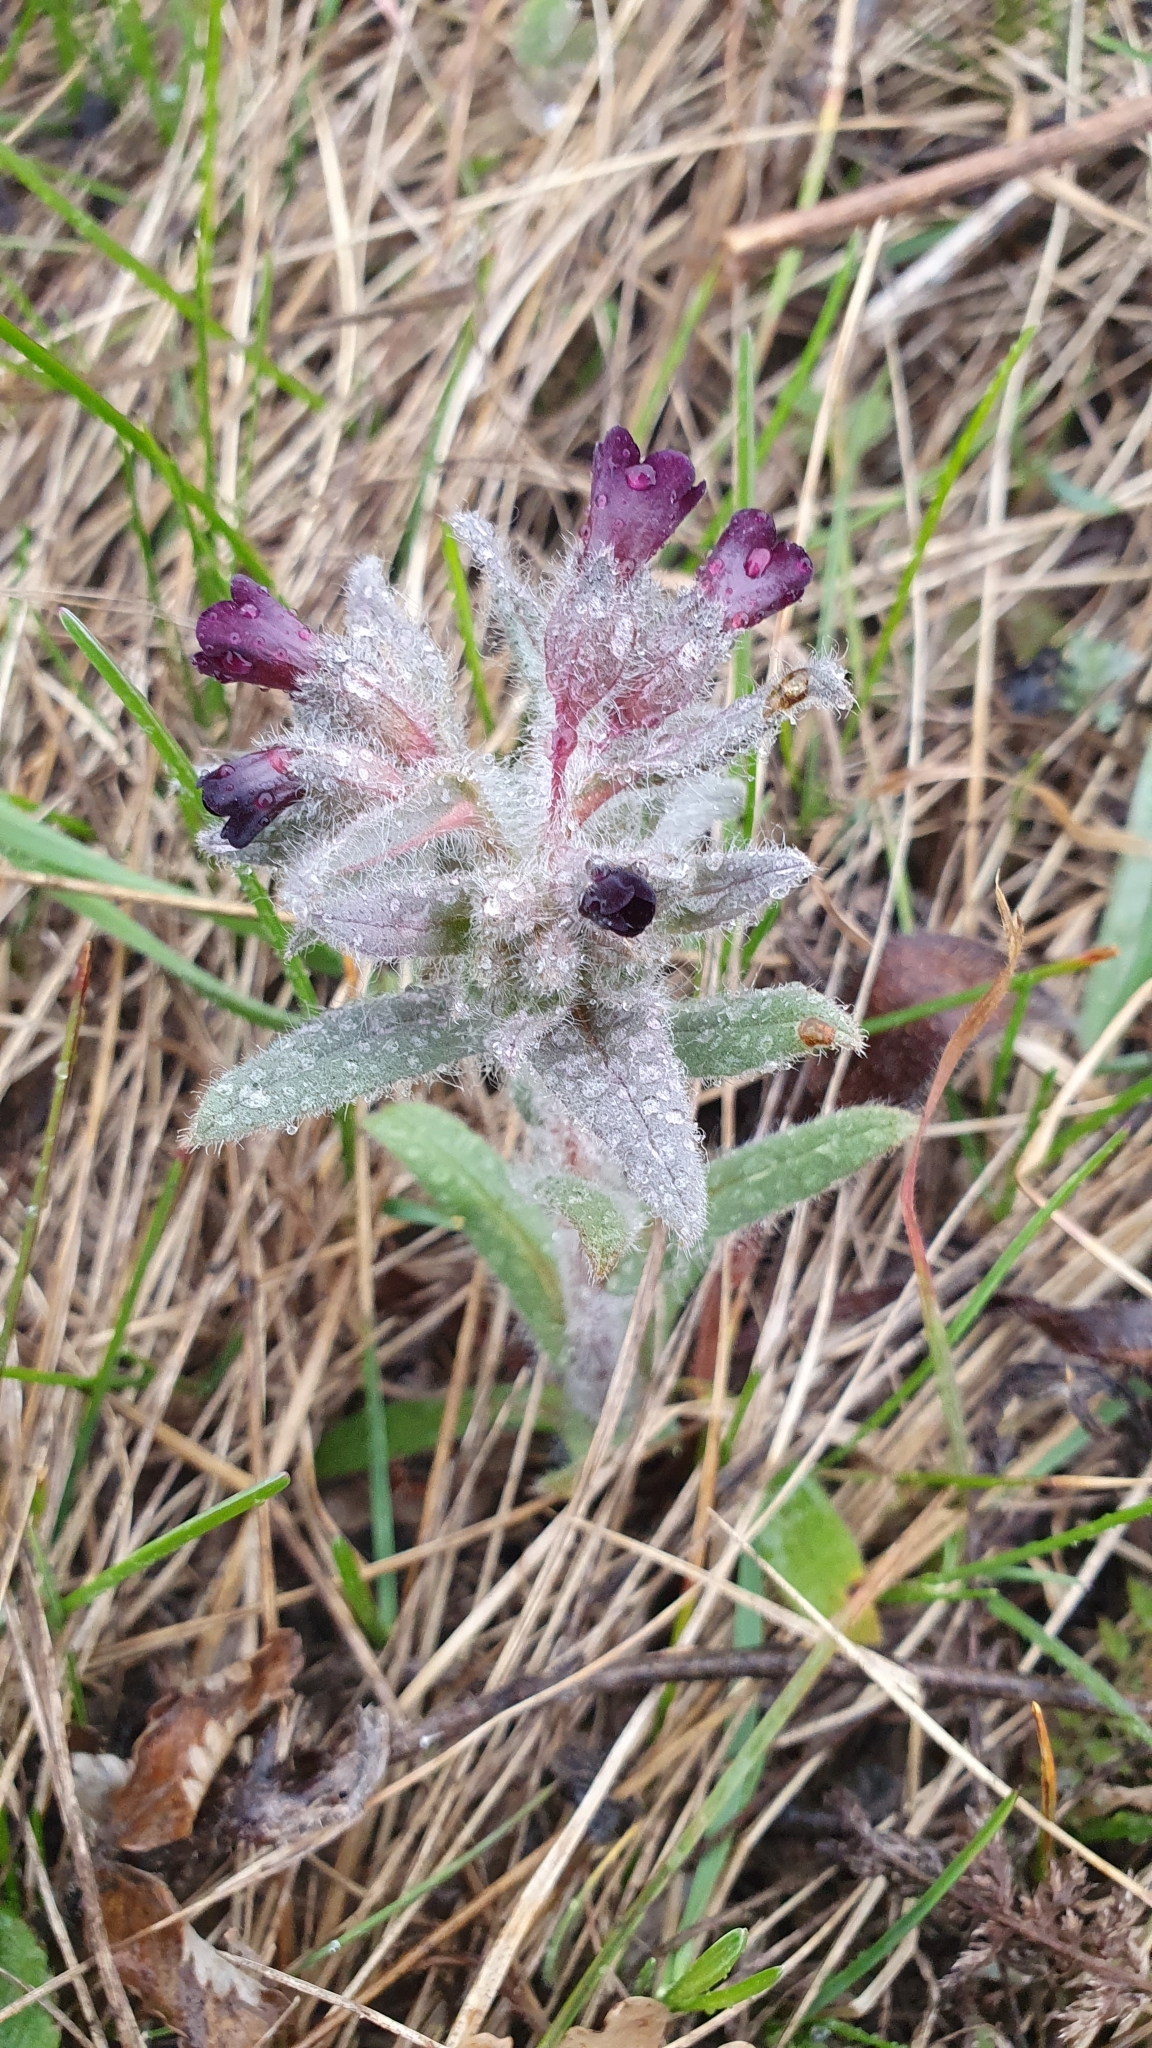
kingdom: Plantae
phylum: Tracheophyta
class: Magnoliopsida
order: Boraginales
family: Boraginaceae
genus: Nonea
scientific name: Nonea pulla
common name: Brown nonea
